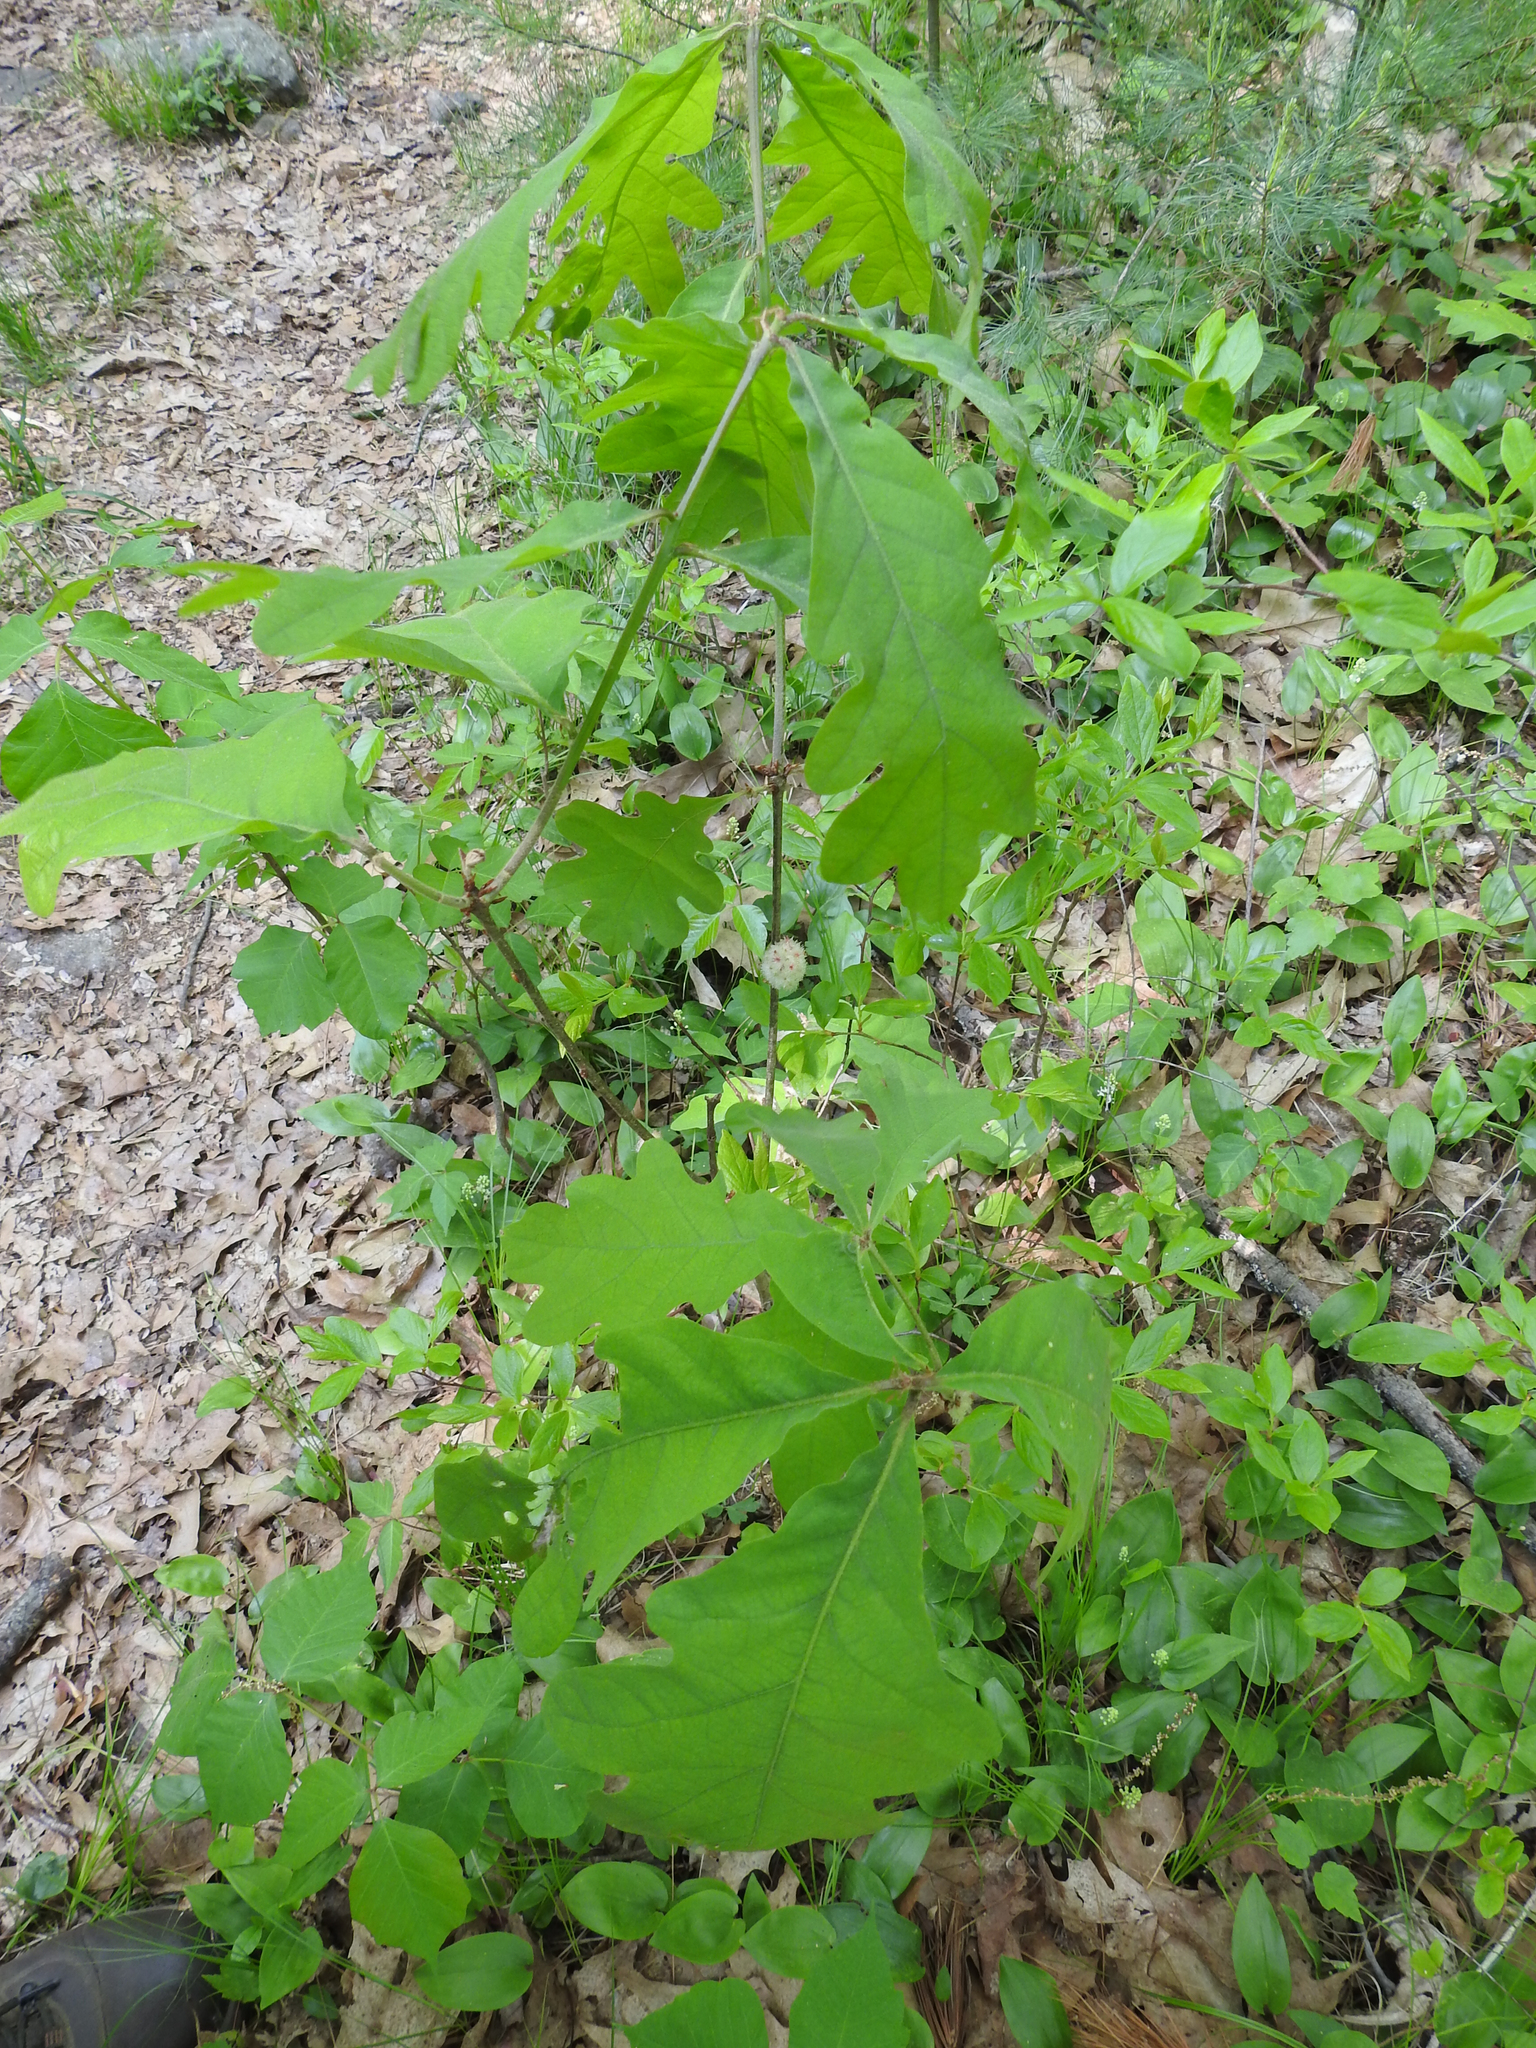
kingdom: Animalia
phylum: Arthropoda
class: Insecta
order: Hymenoptera
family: Cynipidae
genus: Callirhytis
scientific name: Callirhytis
